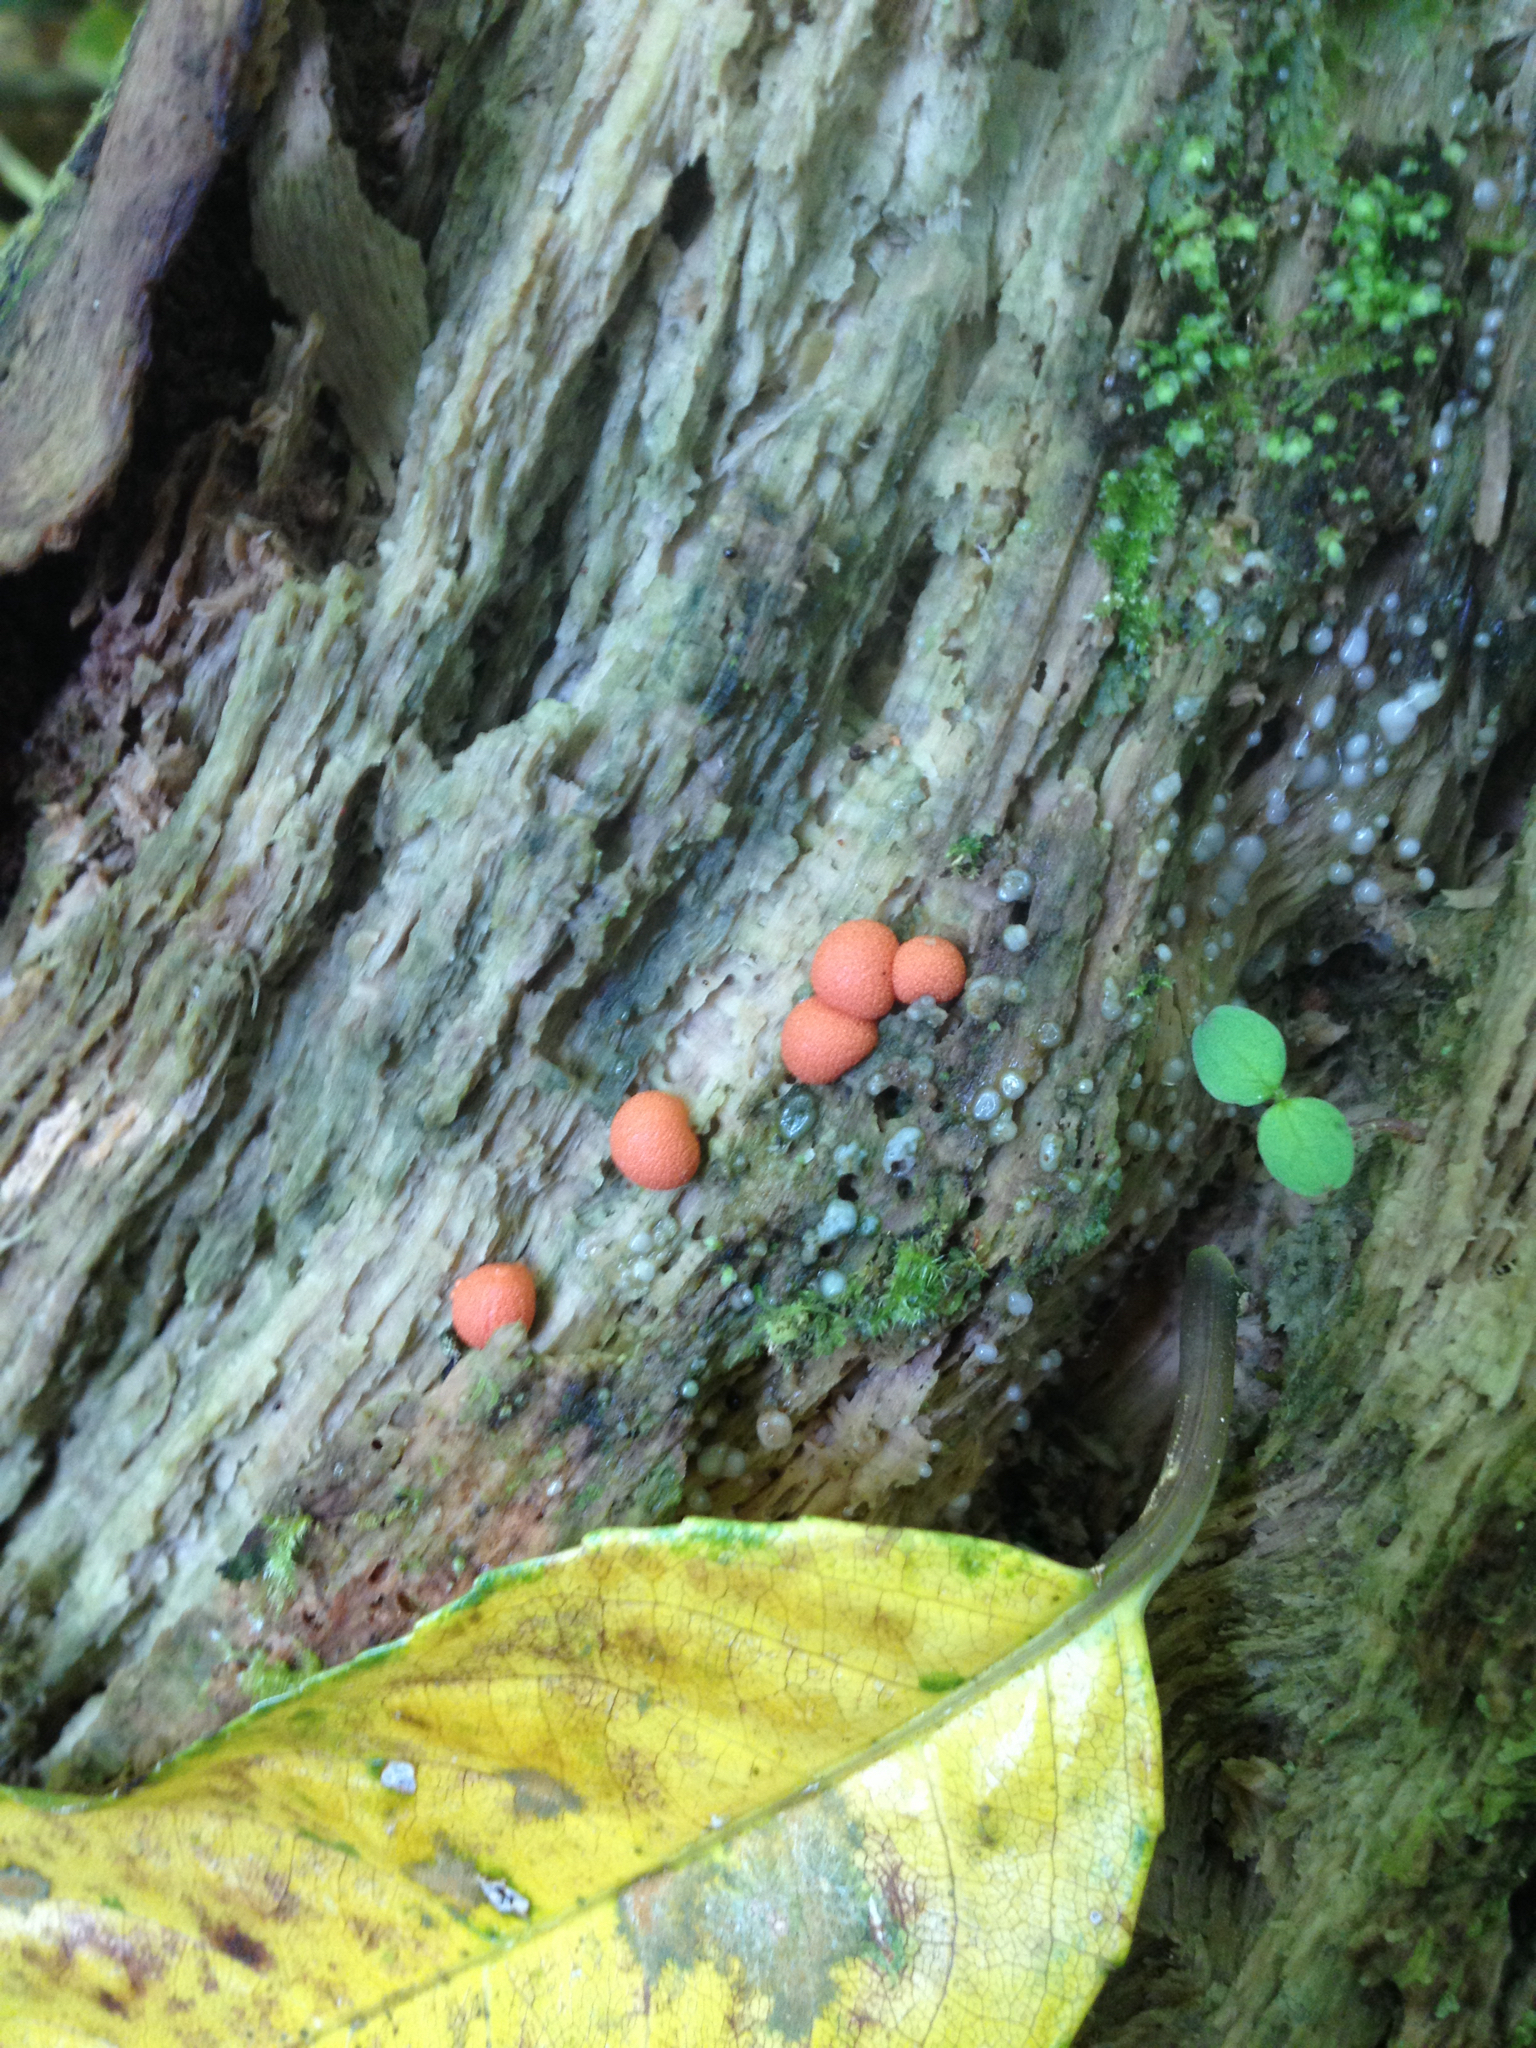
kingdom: Protozoa
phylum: Mycetozoa
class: Myxomycetes
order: Cribrariales
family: Tubiferaceae
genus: Lycogala
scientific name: Lycogala epidendrum
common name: Wolf's milk
